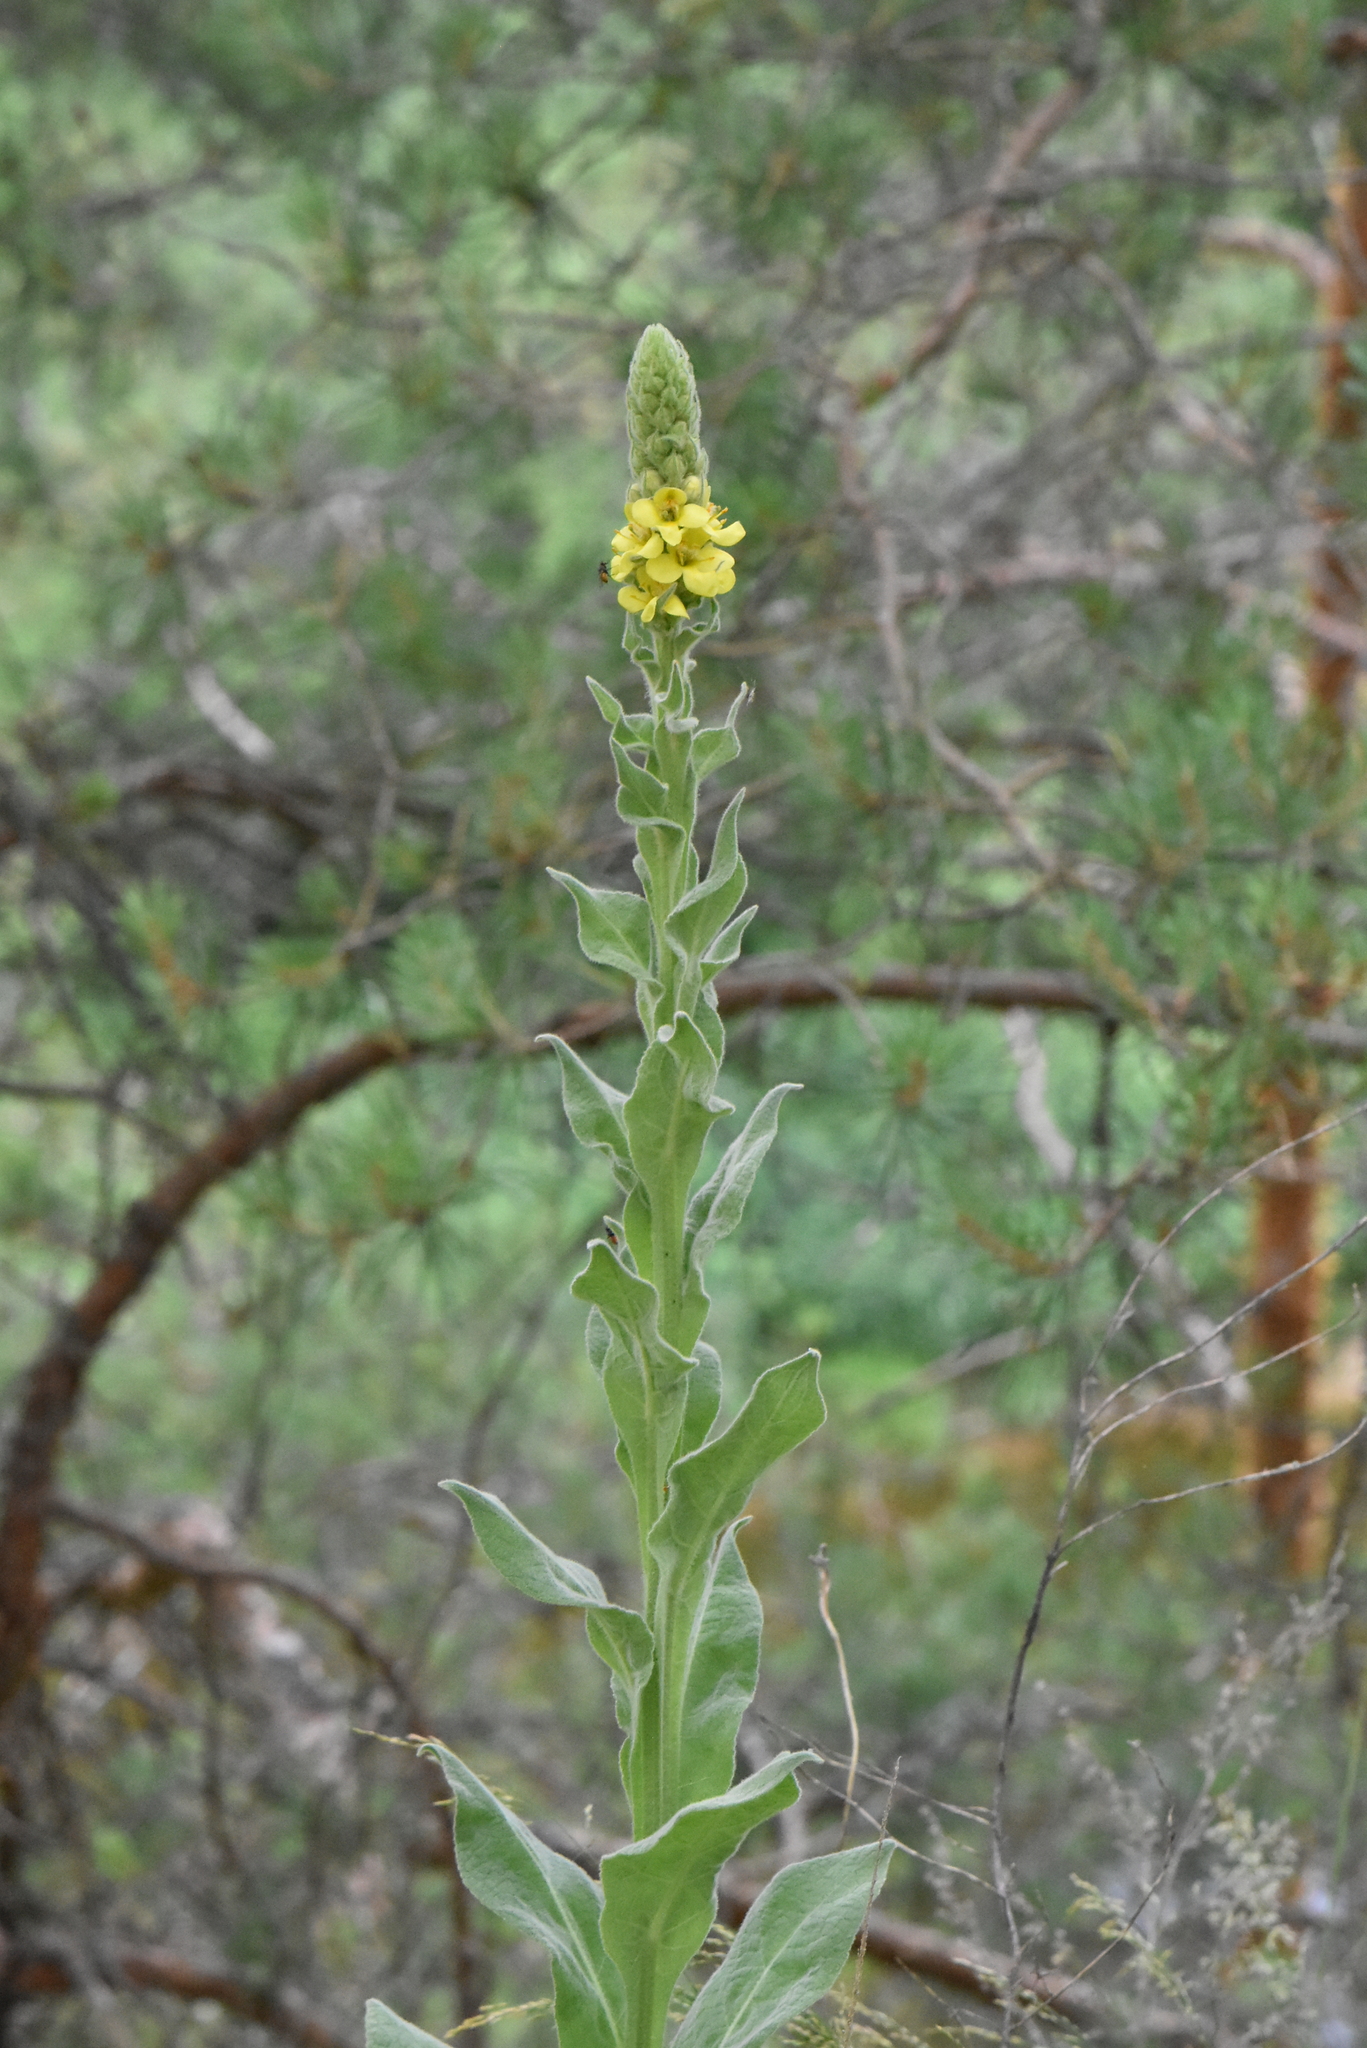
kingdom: Plantae
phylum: Tracheophyta
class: Magnoliopsida
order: Lamiales
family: Scrophulariaceae
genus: Verbascum
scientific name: Verbascum thapsus
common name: Common mullein
